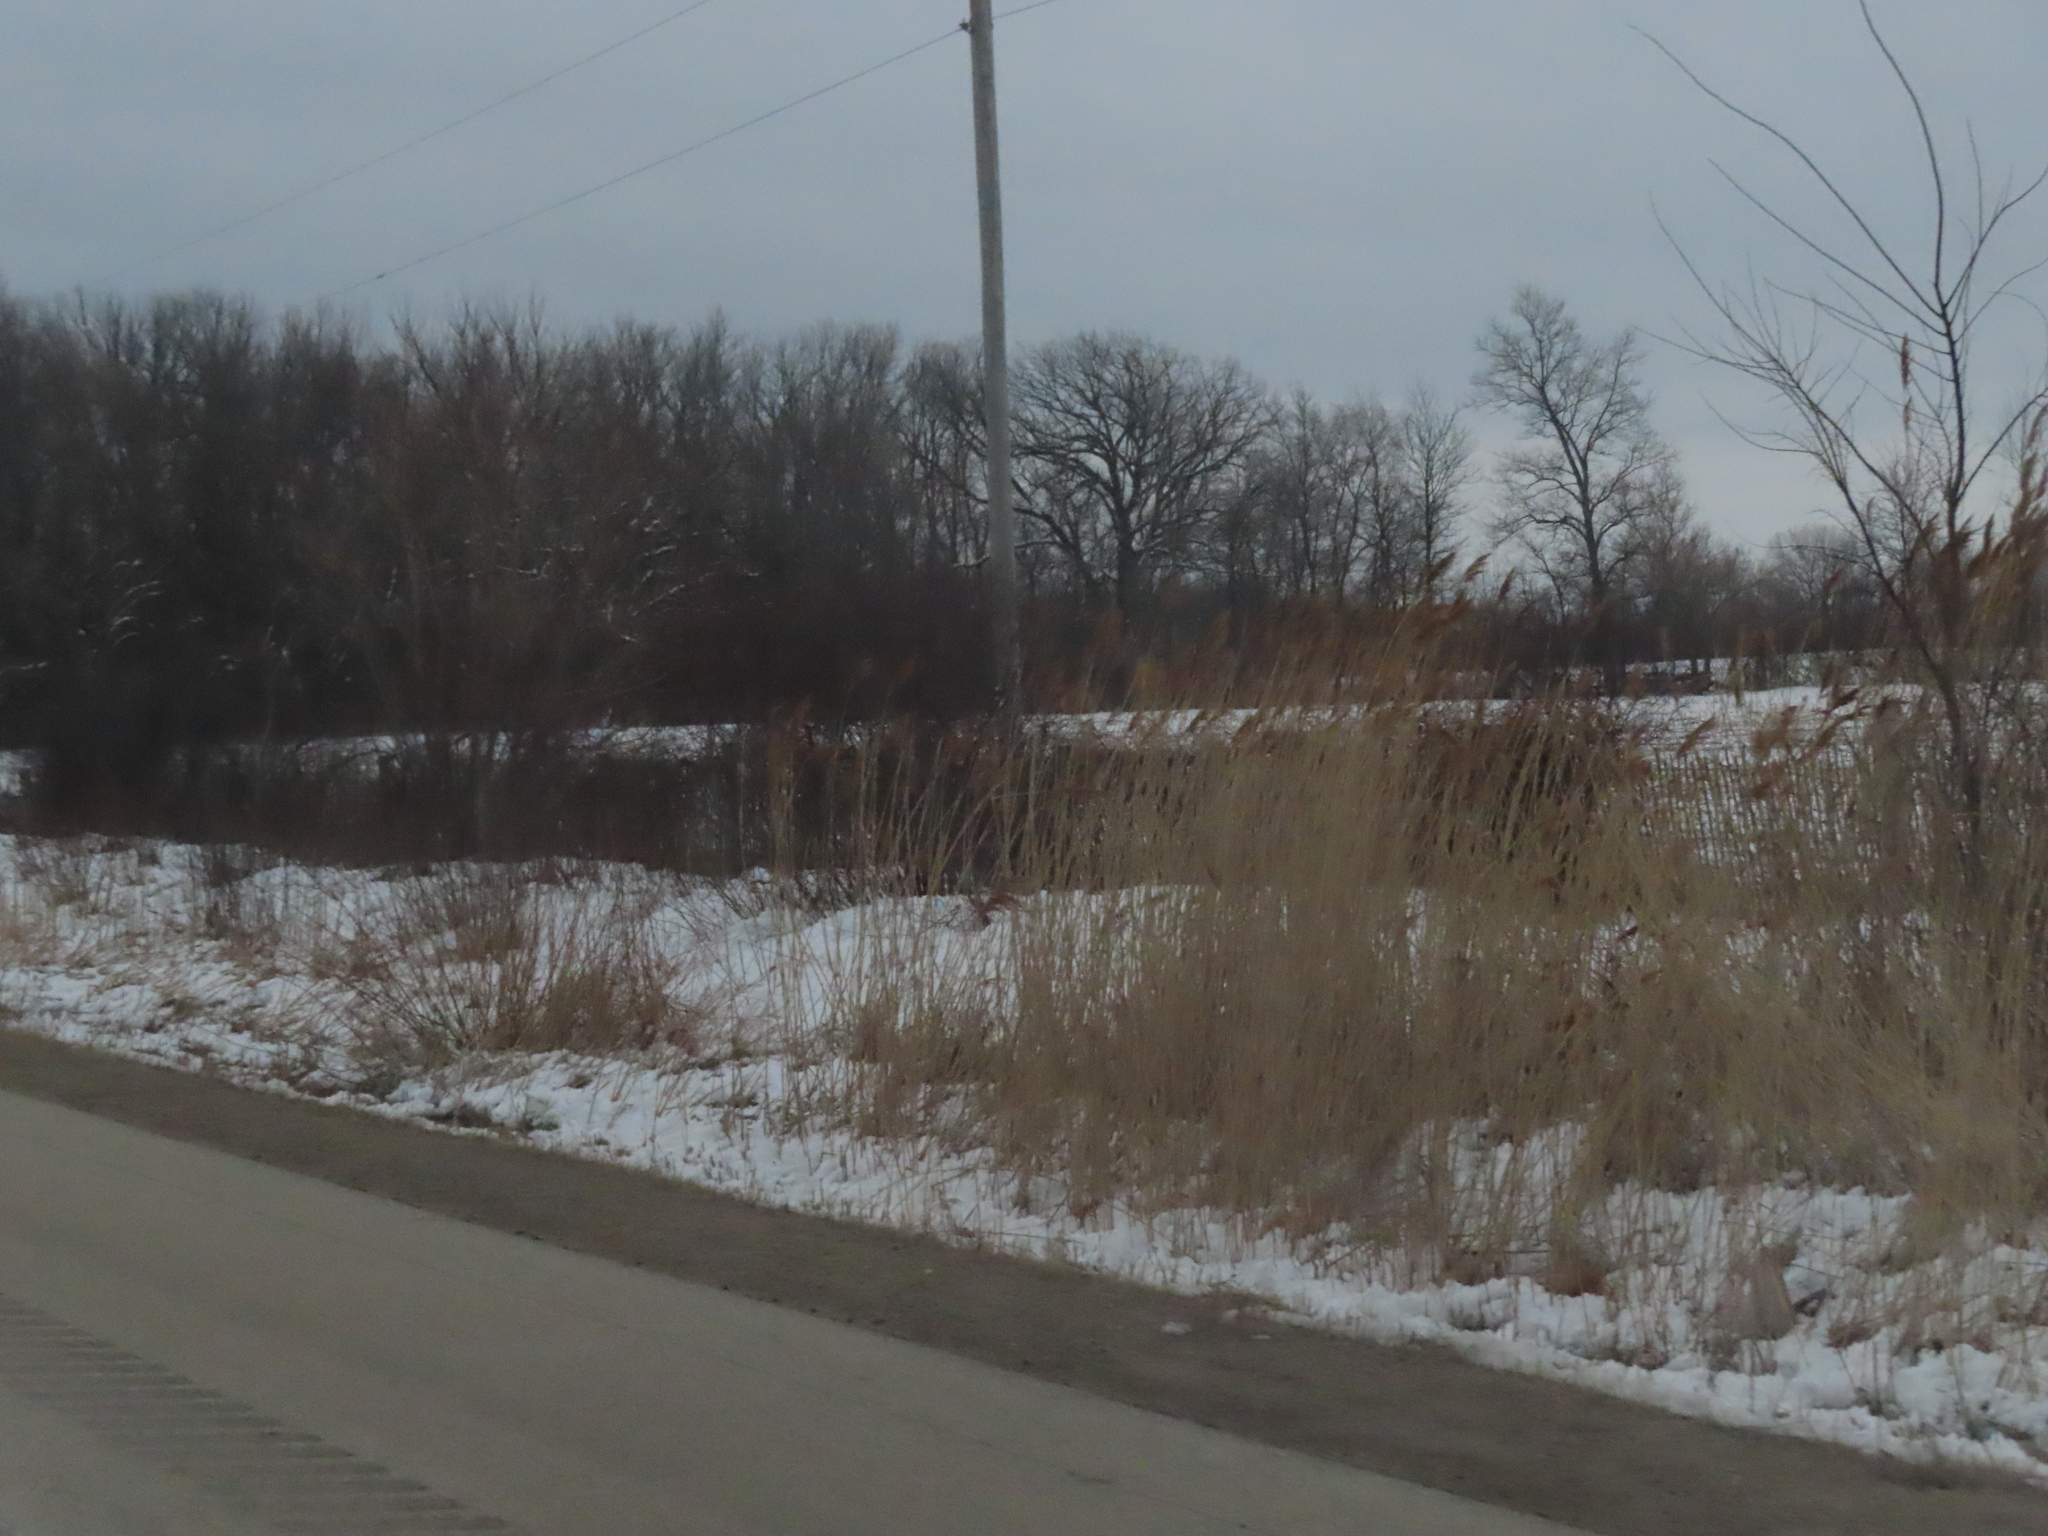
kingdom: Plantae
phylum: Tracheophyta
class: Liliopsida
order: Poales
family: Poaceae
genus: Phragmites
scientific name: Phragmites australis
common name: Common reed
